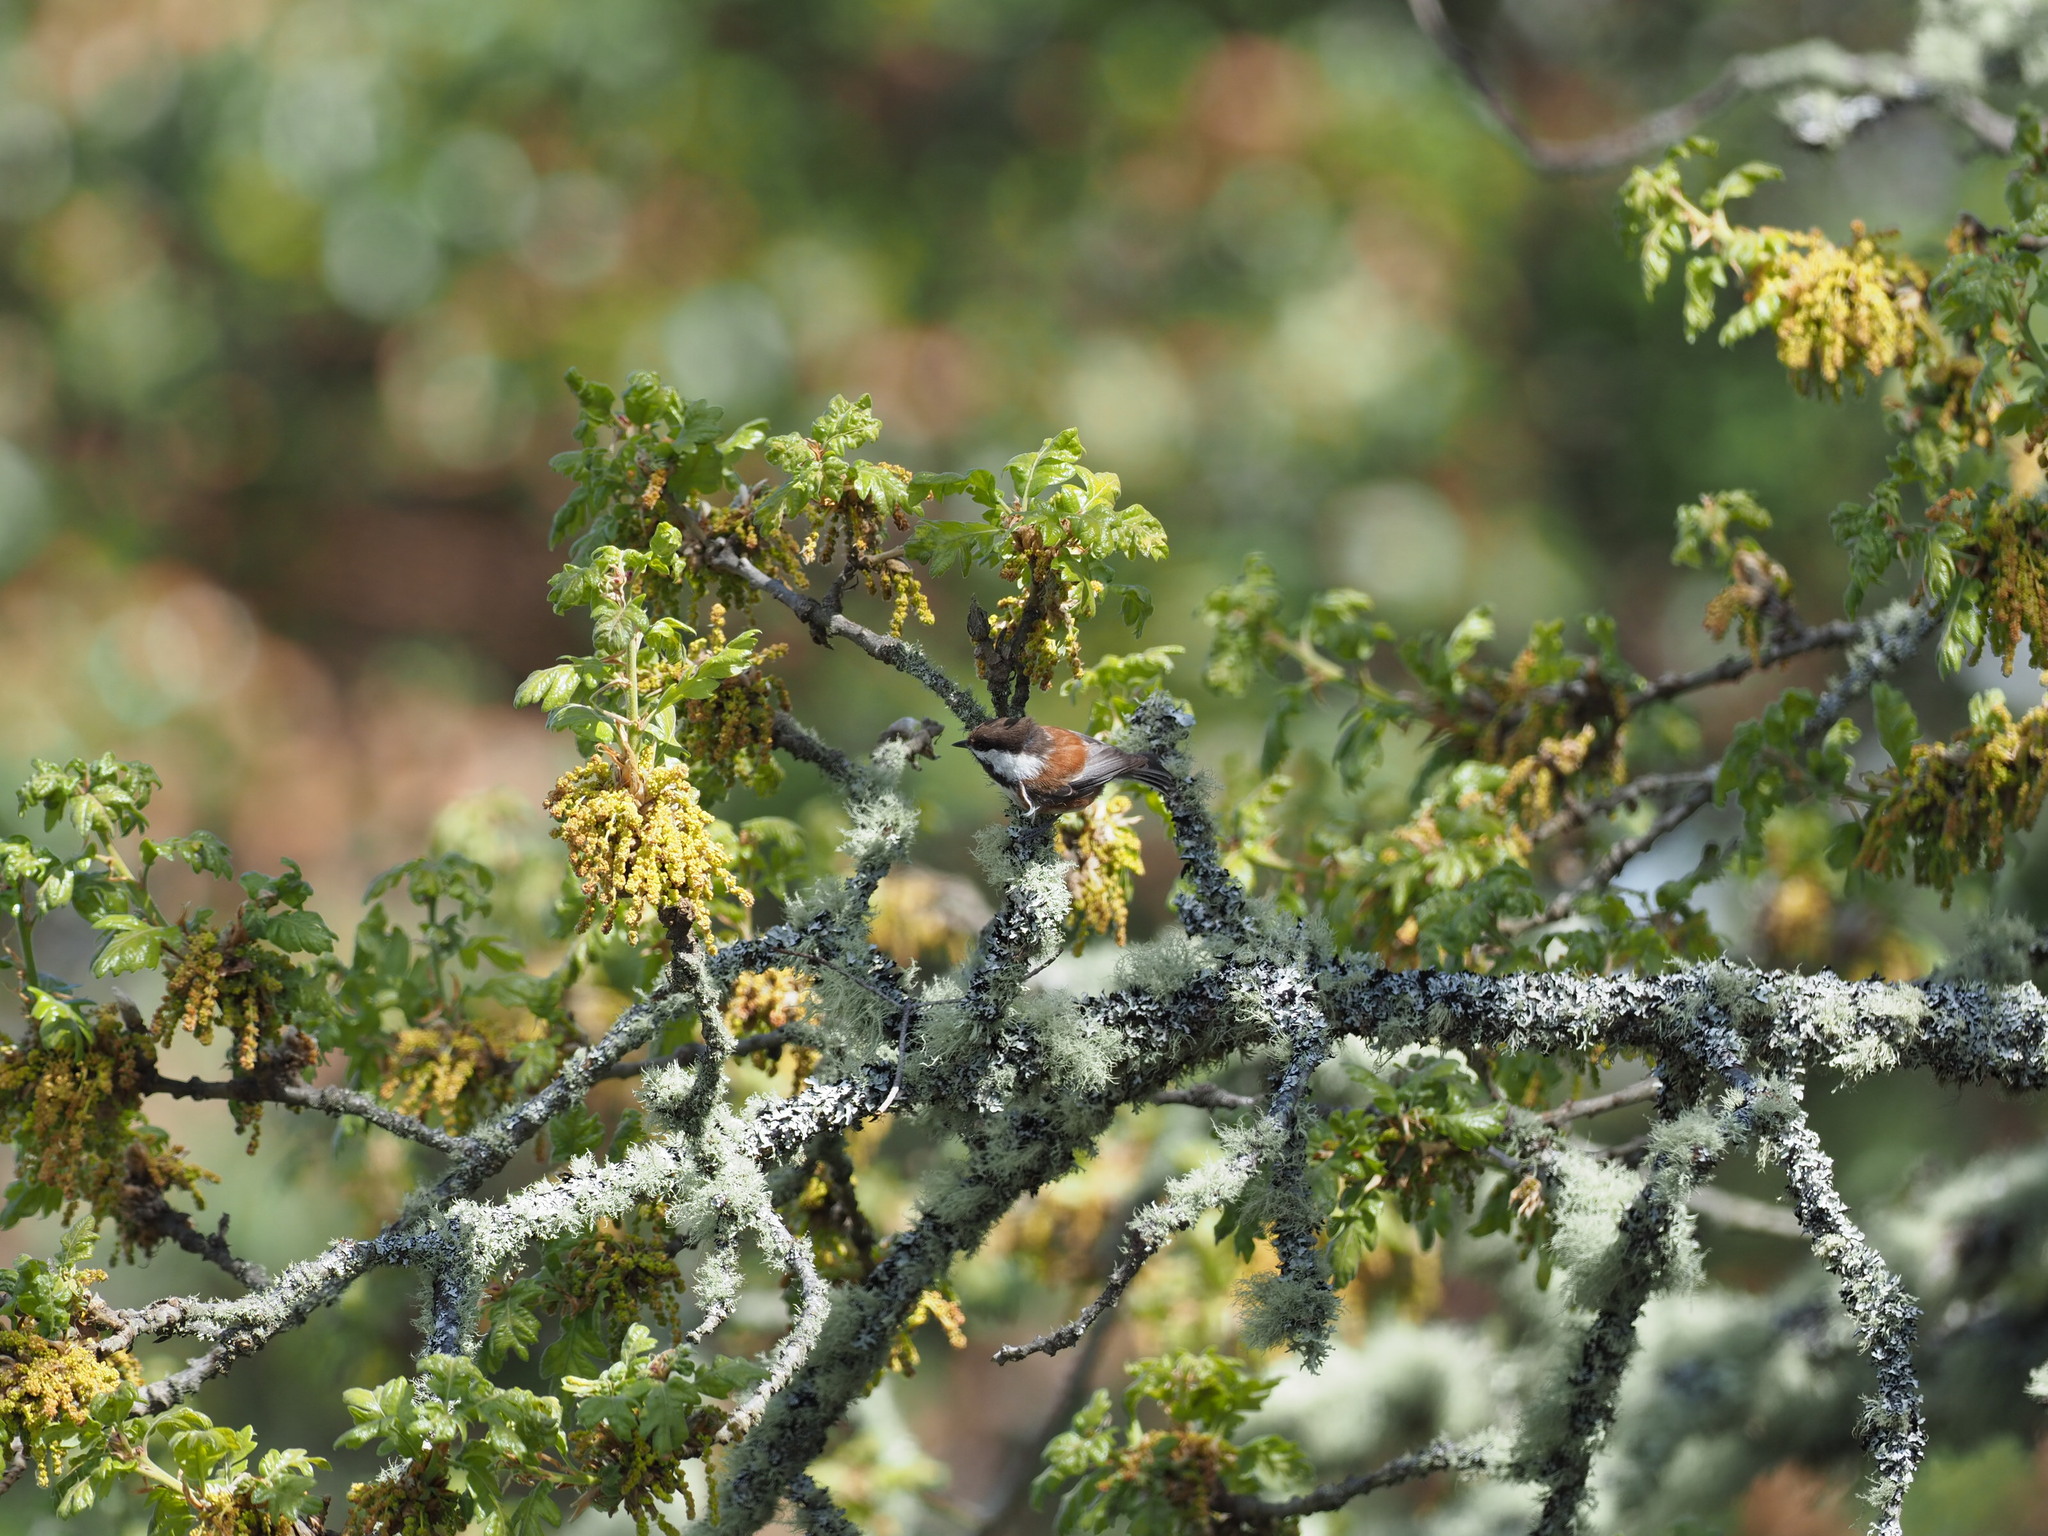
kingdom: Animalia
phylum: Chordata
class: Aves
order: Passeriformes
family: Paridae
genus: Poecile
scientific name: Poecile rufescens
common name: Chestnut-backed chickadee
